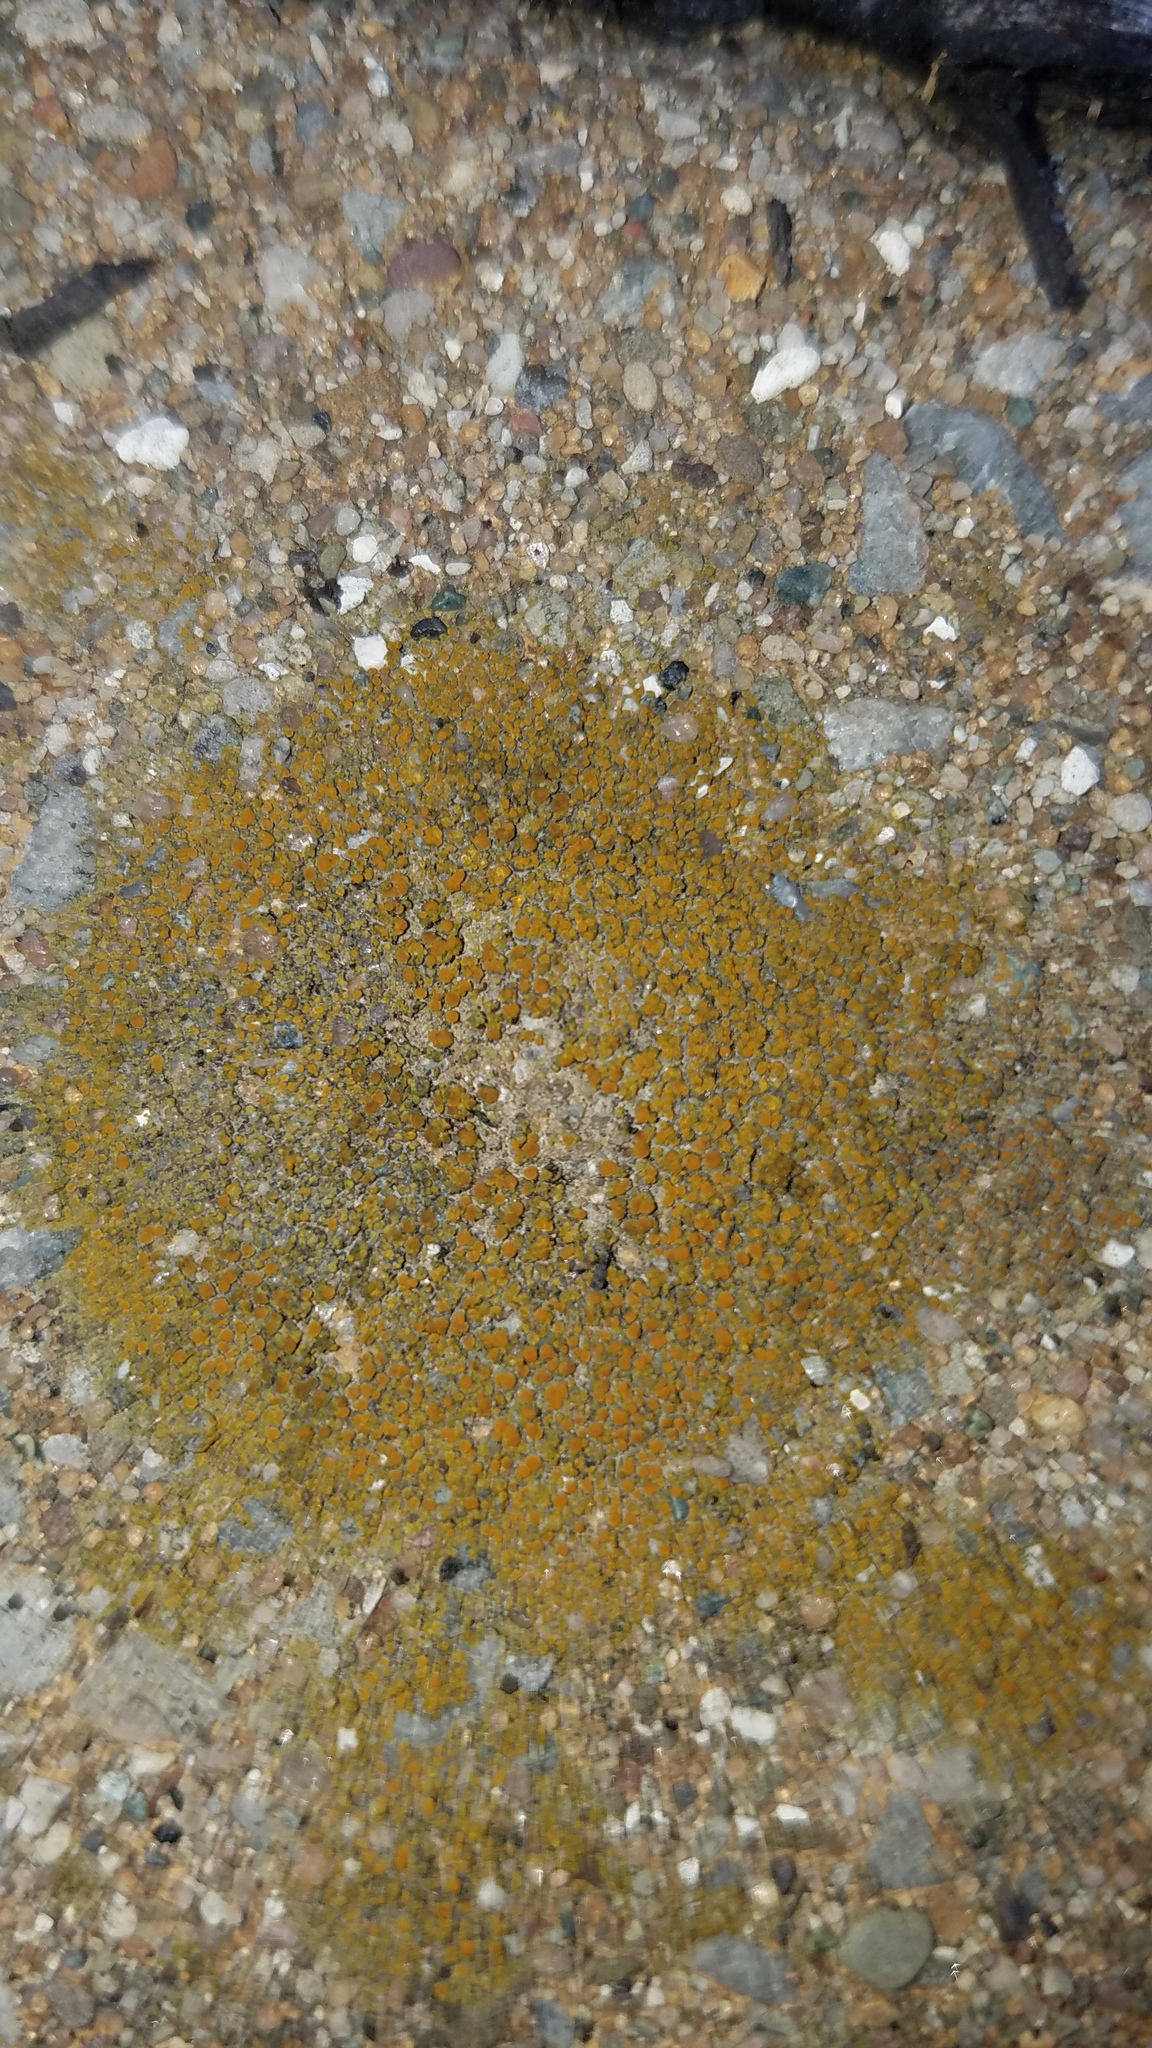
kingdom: Fungi
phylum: Ascomycota
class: Lecanoromycetes
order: Teloschistales
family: Teloschistaceae
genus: Xanthocarpia
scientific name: Xanthocarpia feracissima
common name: Sidewalk firedot
